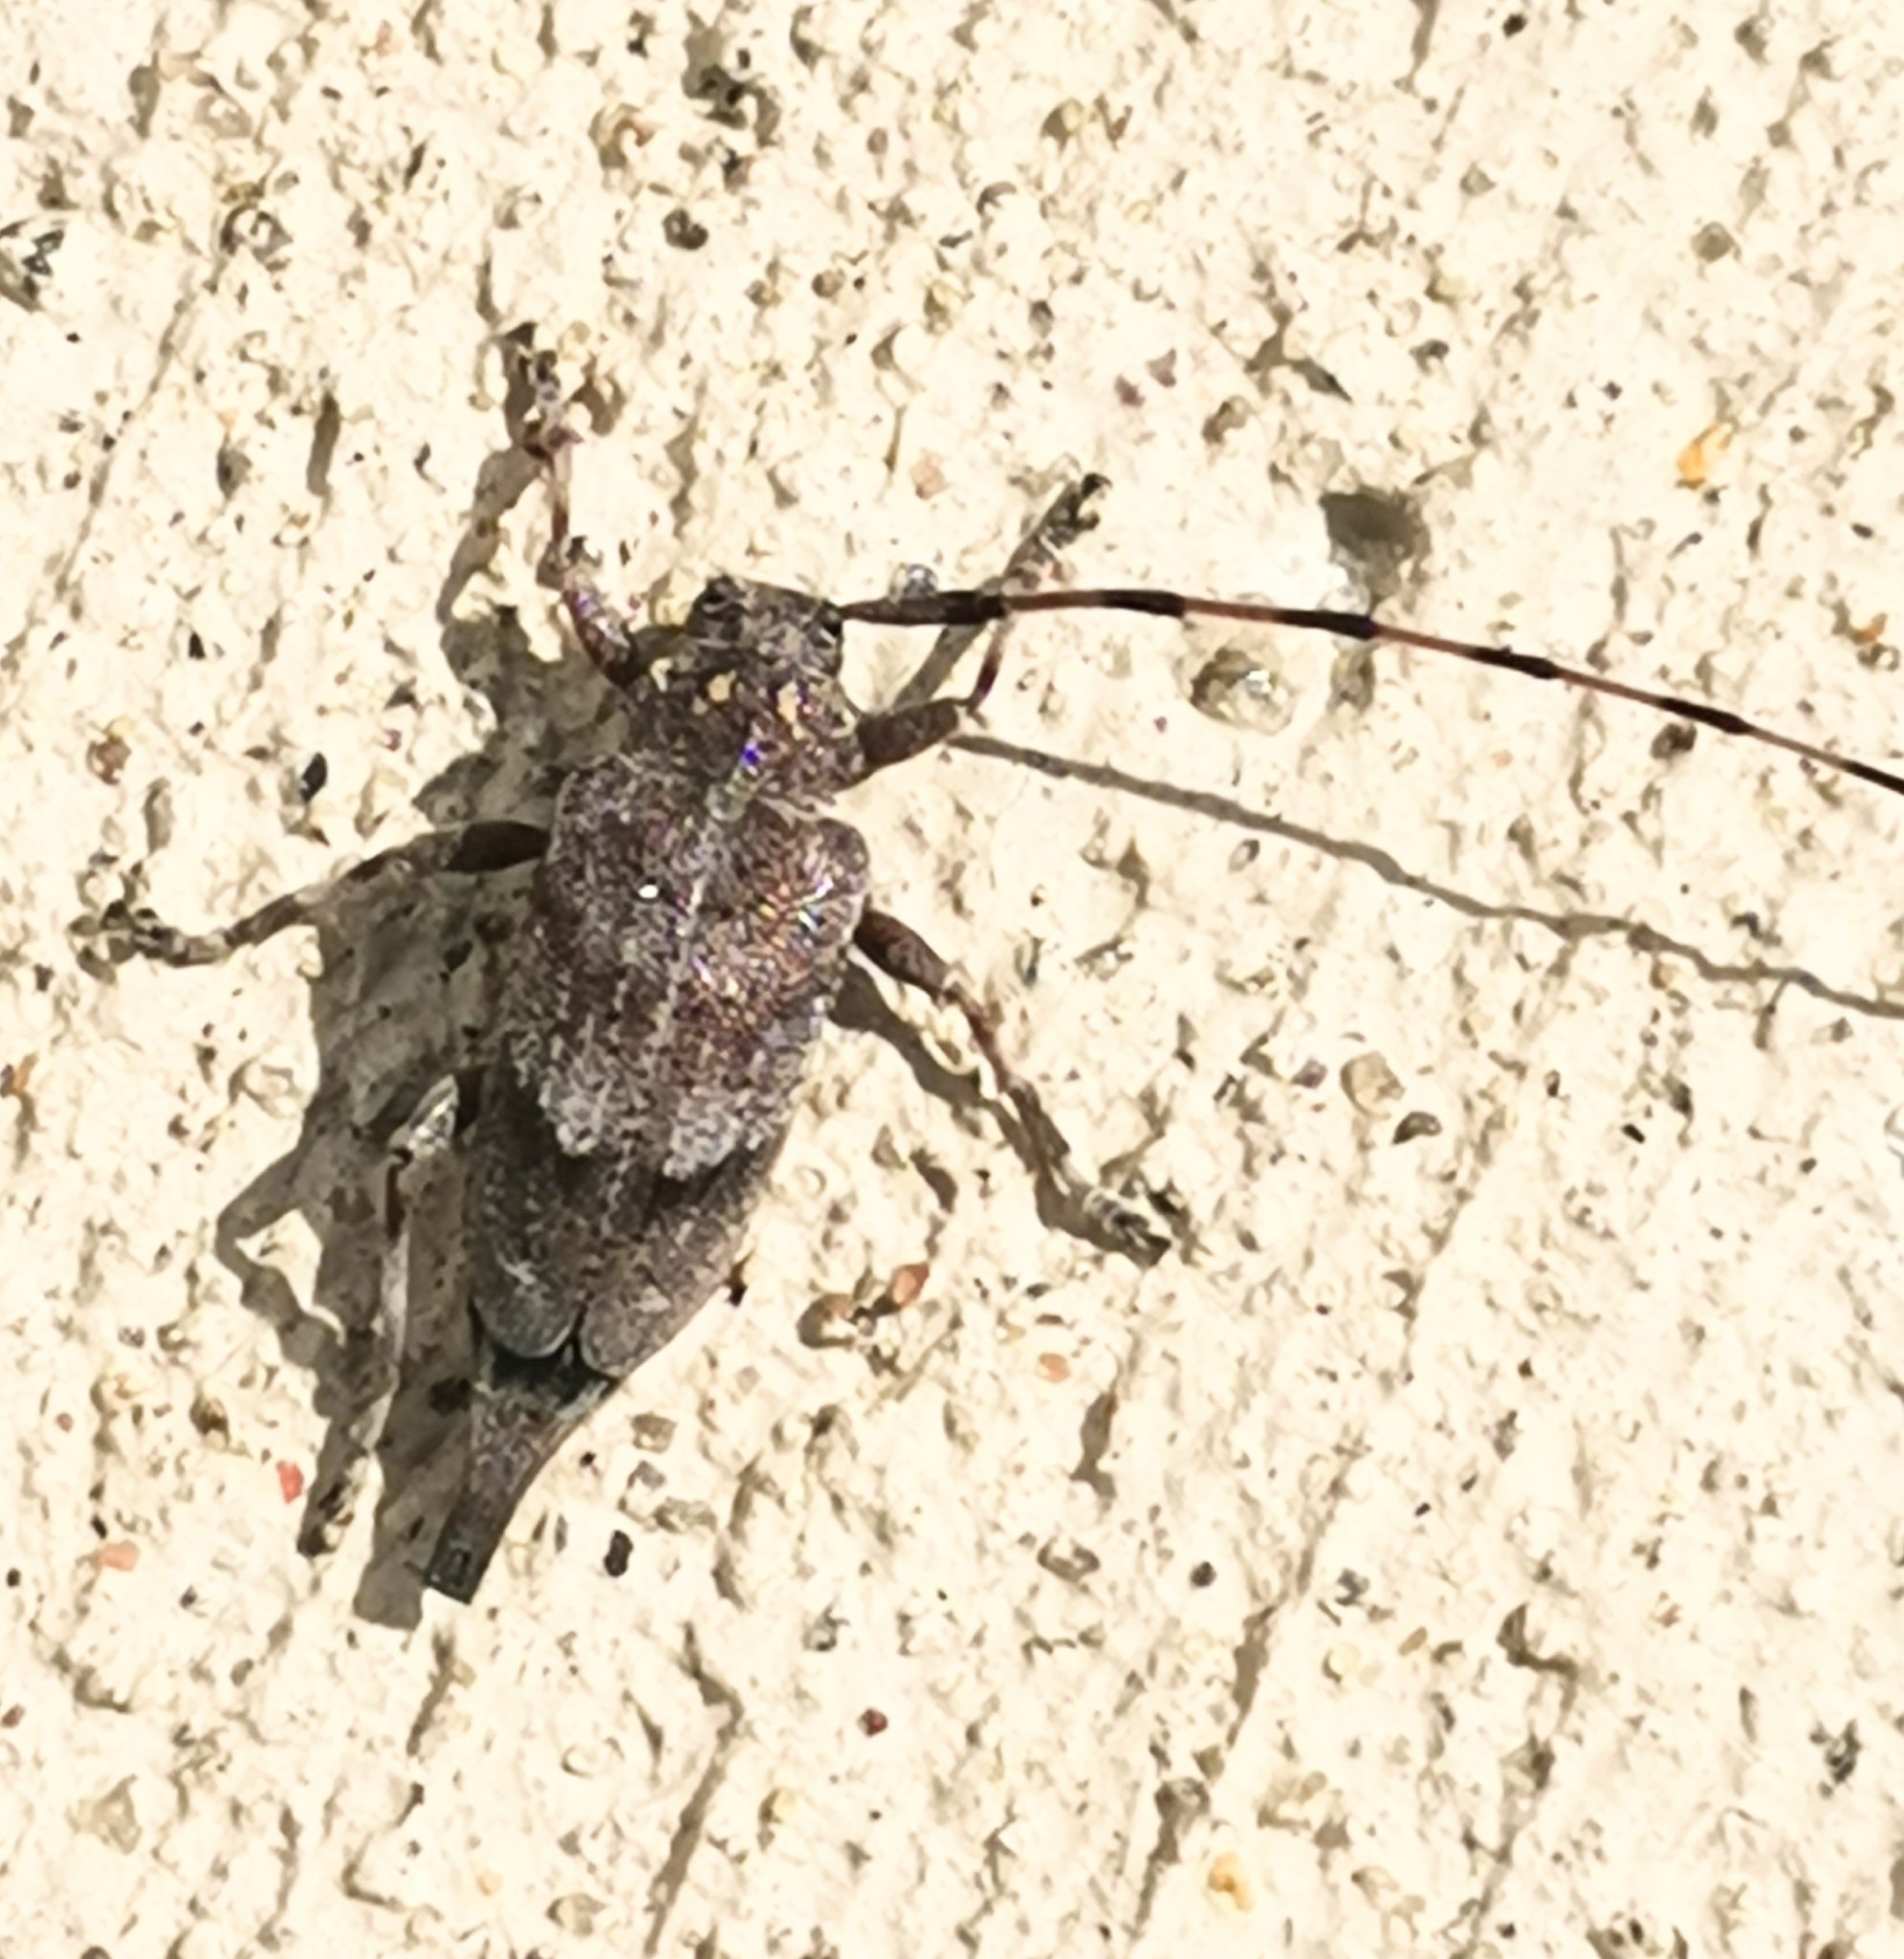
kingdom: Animalia
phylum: Arthropoda
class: Insecta
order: Coleoptera
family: Cerambycidae
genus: Acanthocinus
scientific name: Acanthocinus aedilis
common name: Timberman beetle
